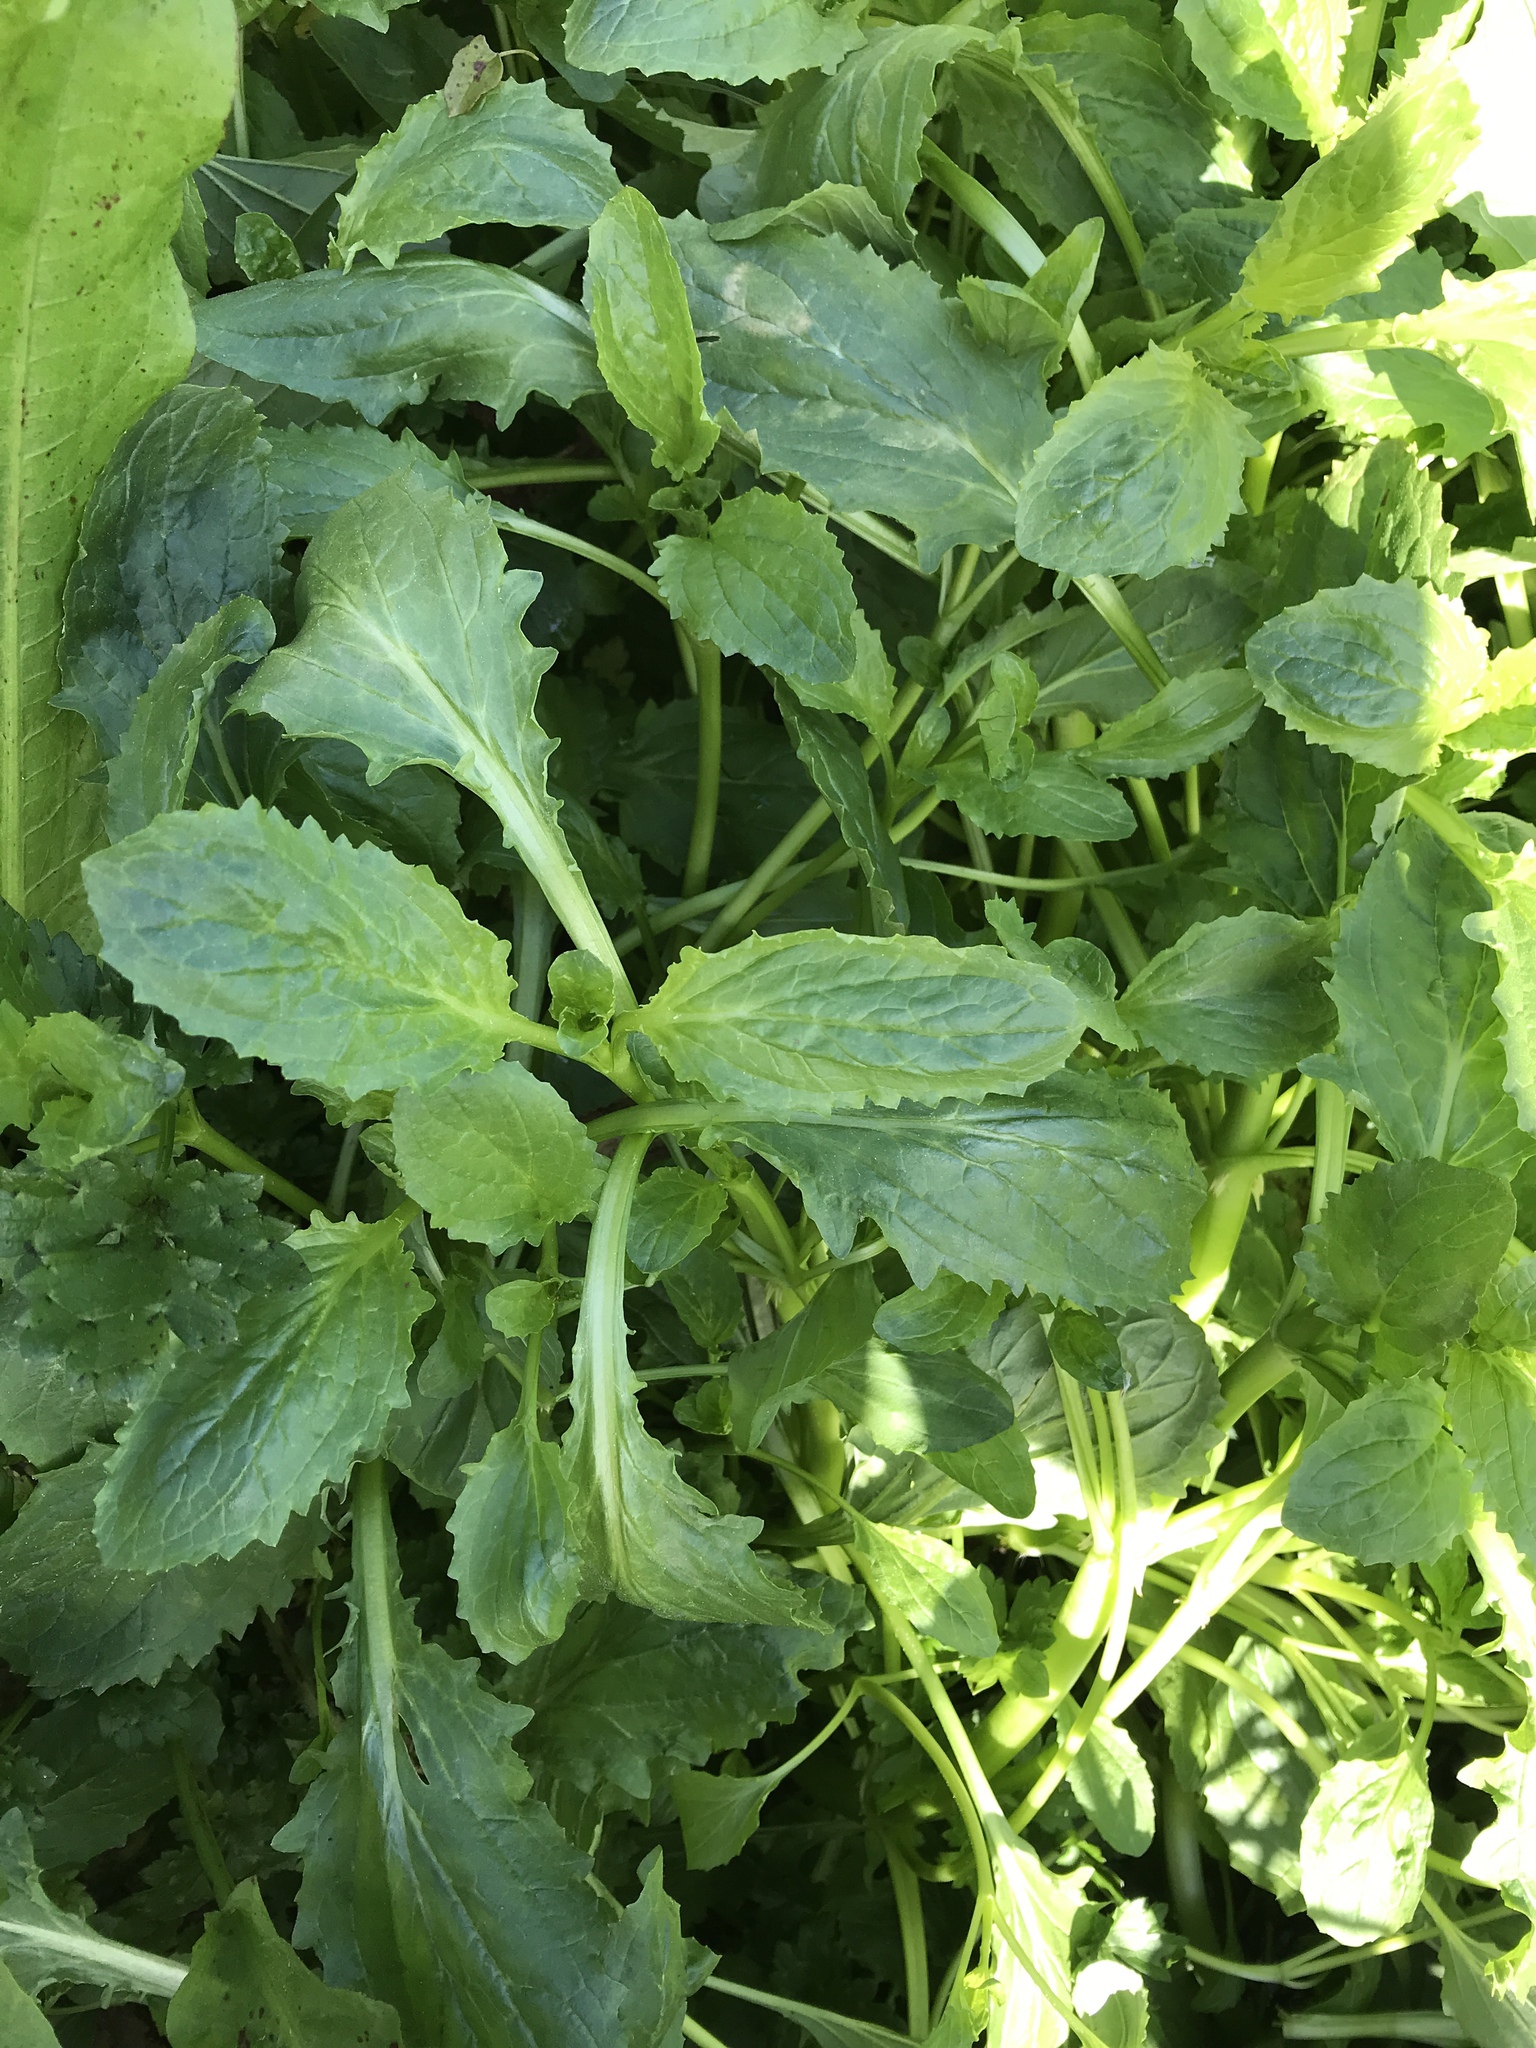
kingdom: Plantae
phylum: Tracheophyta
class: Magnoliopsida
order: Lamiales
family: Phrymaceae
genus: Erythranthe
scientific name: Erythranthe guttata
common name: Monkeyflower
